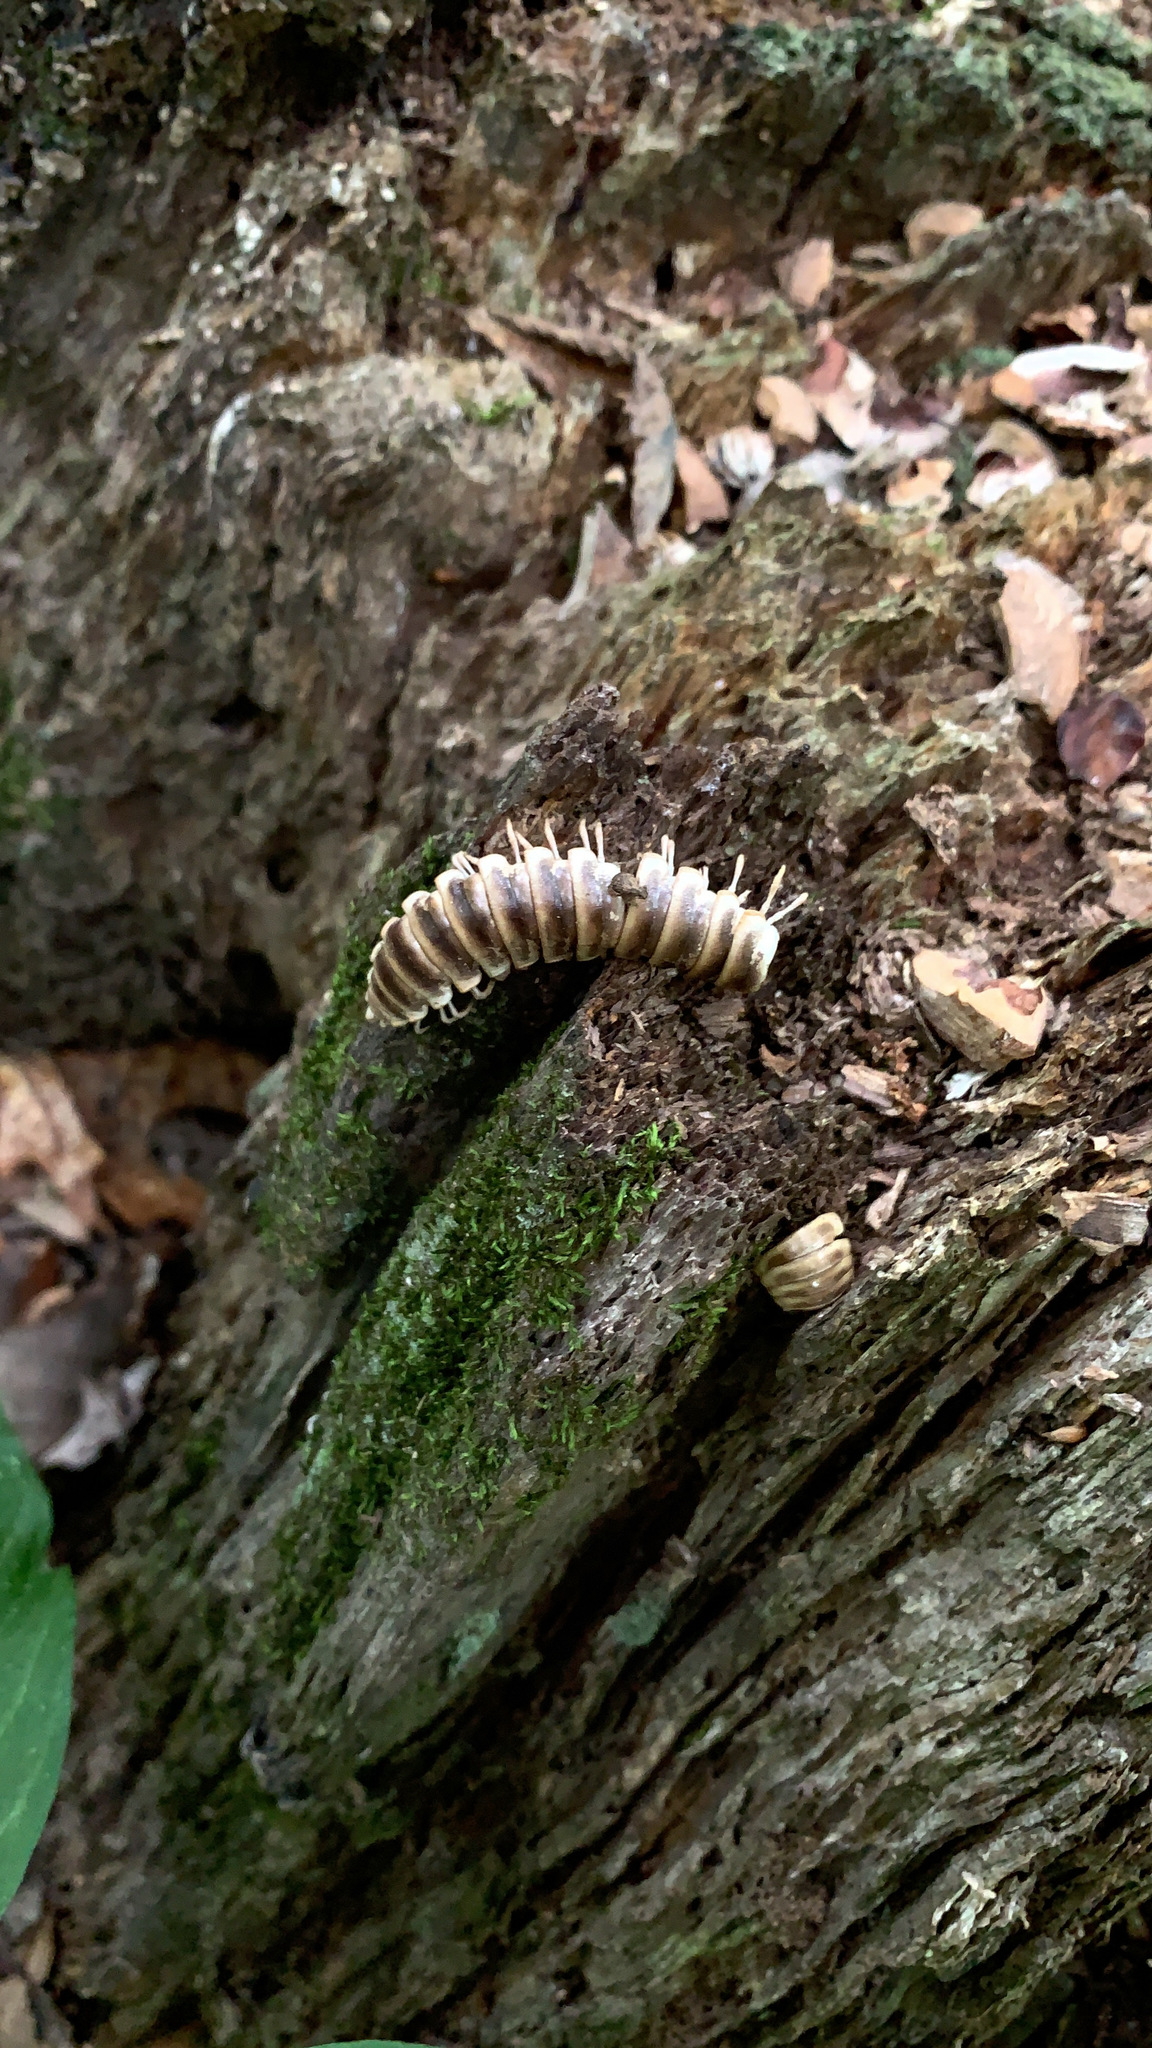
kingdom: Fungi
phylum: Entomophthoromycota
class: Entomophthoromycetes
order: Entomophthorales
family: Entomophthoraceae
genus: Arthrophaga
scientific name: Arthrophaga myriapodina
